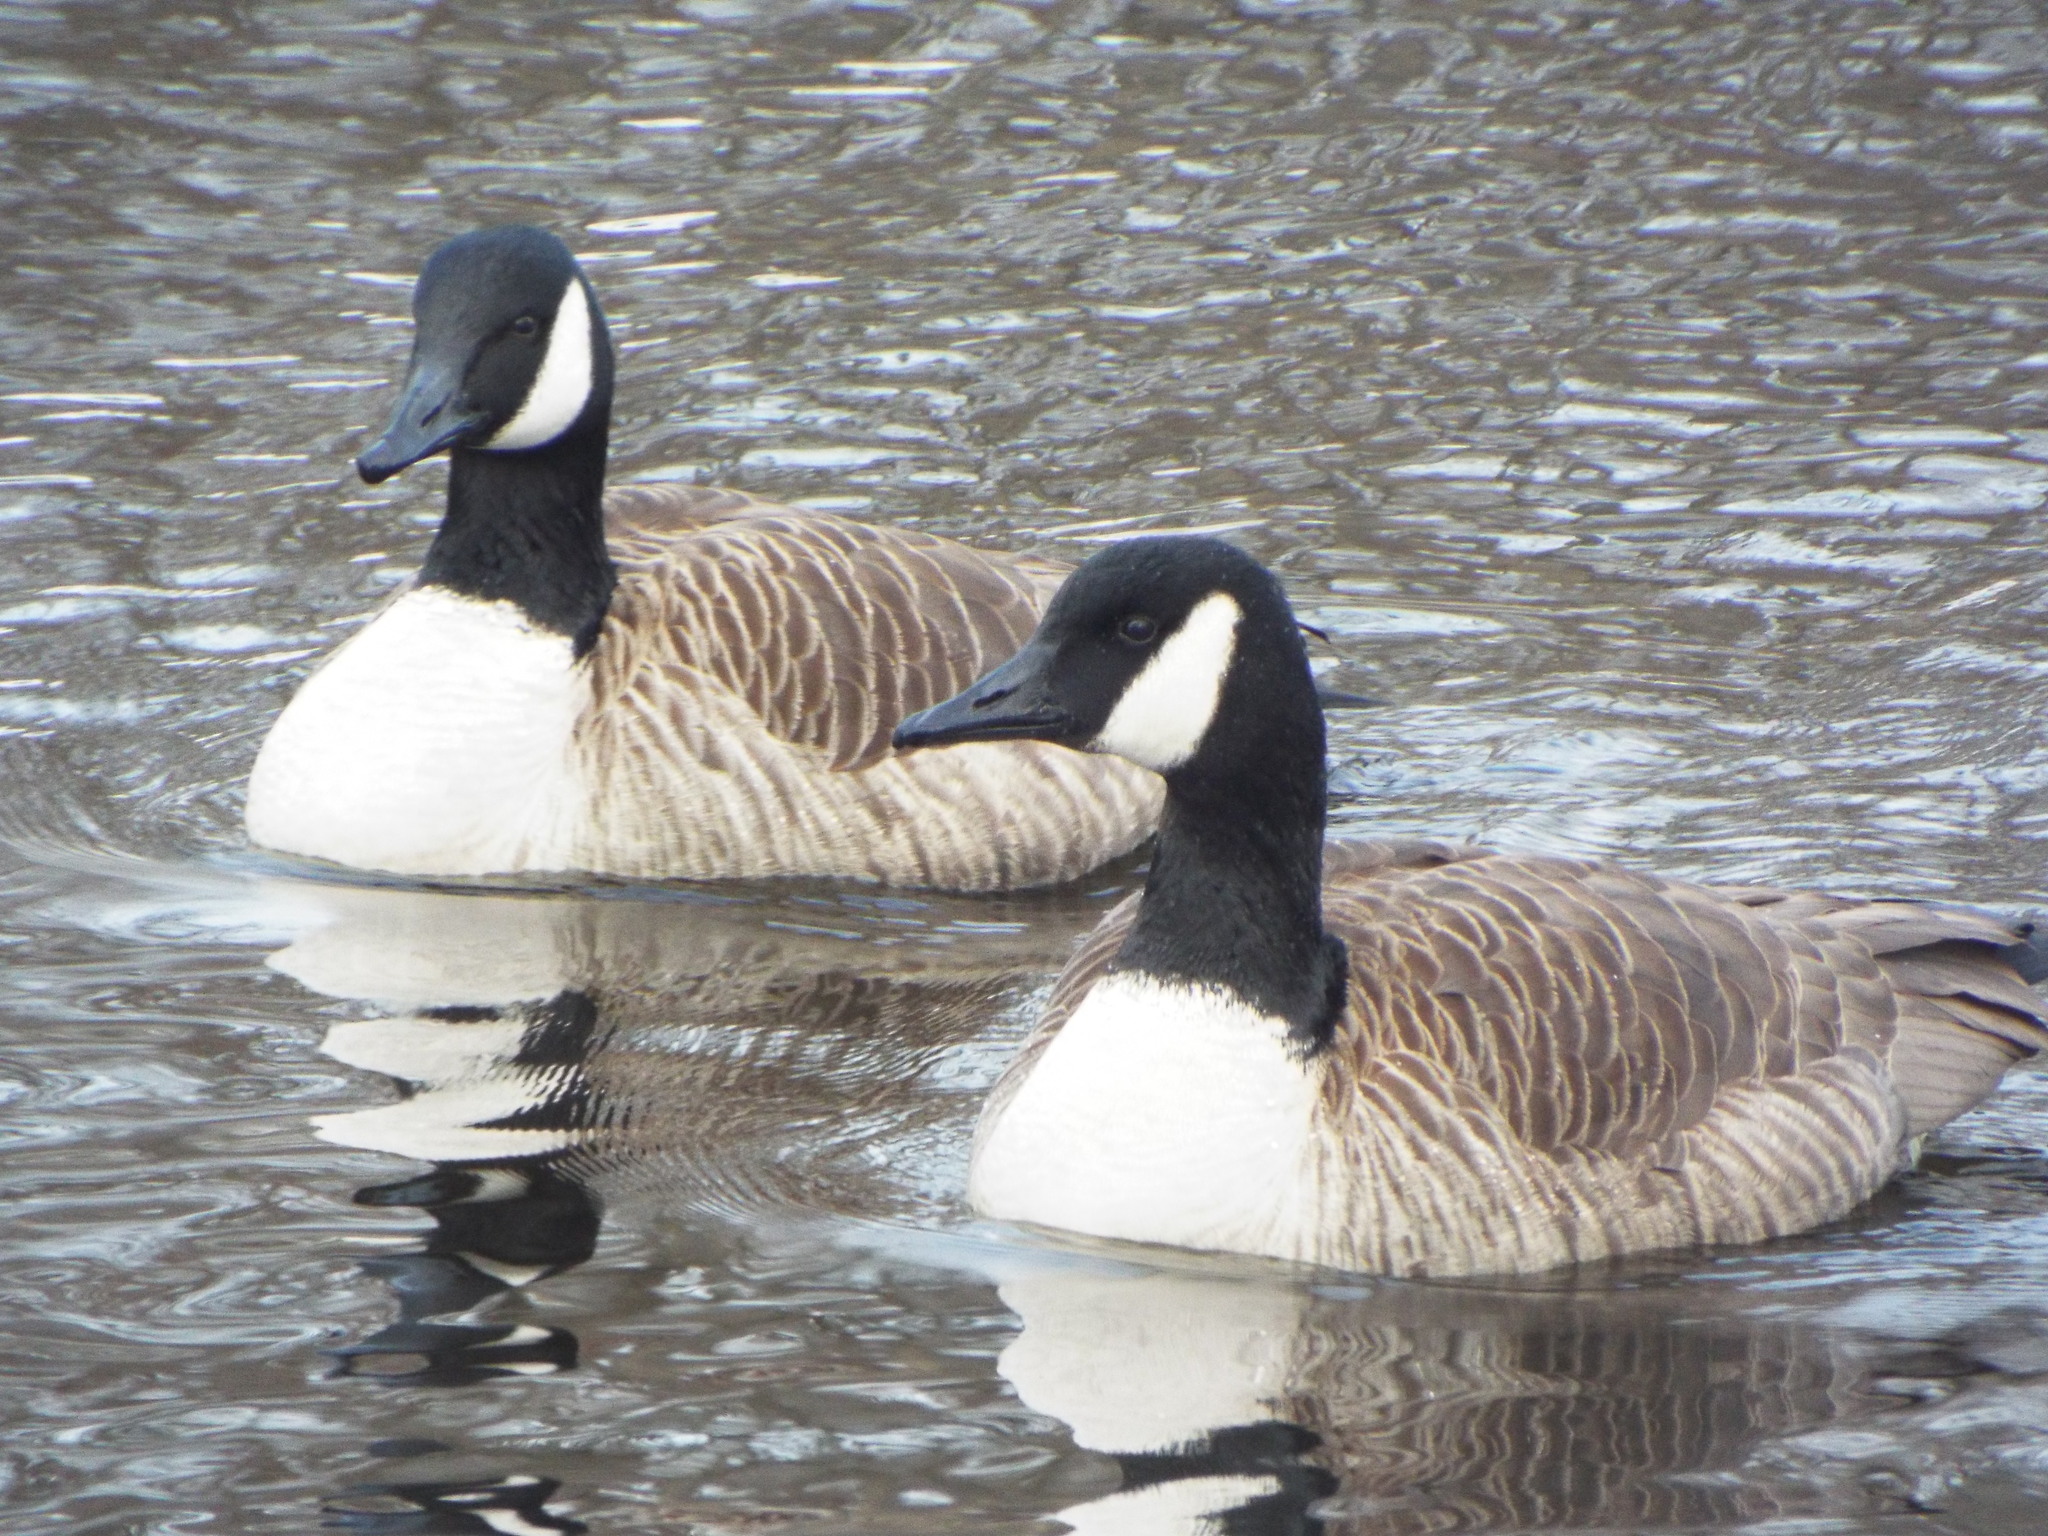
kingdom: Animalia
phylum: Chordata
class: Aves
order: Anseriformes
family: Anatidae
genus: Branta
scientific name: Branta canadensis
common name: Canada goose
